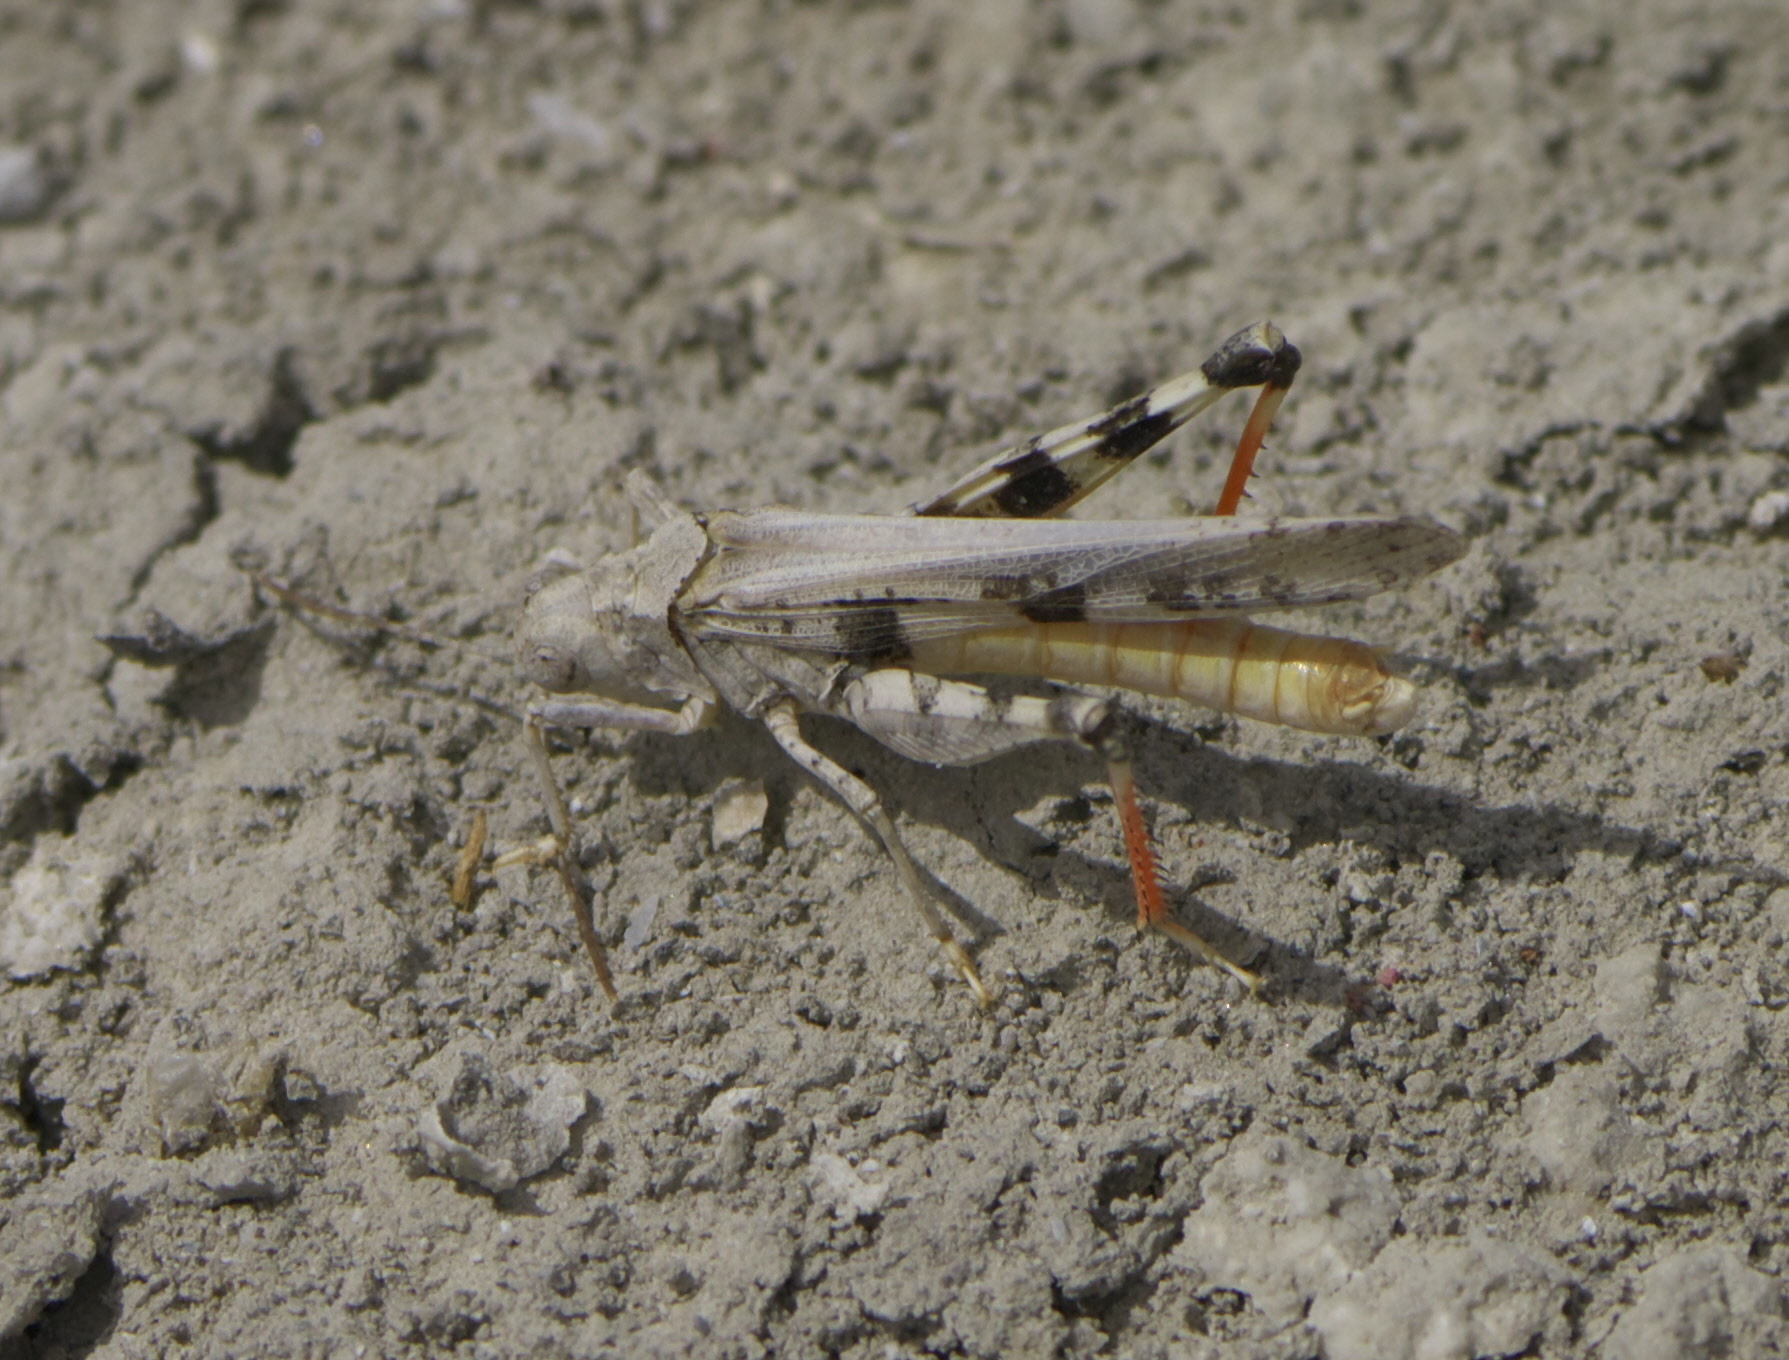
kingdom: Animalia
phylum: Arthropoda
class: Insecta
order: Orthoptera
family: Acrididae
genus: Conozoa
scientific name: Conozoa sulcifrons
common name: Groove-headed grasshopper
